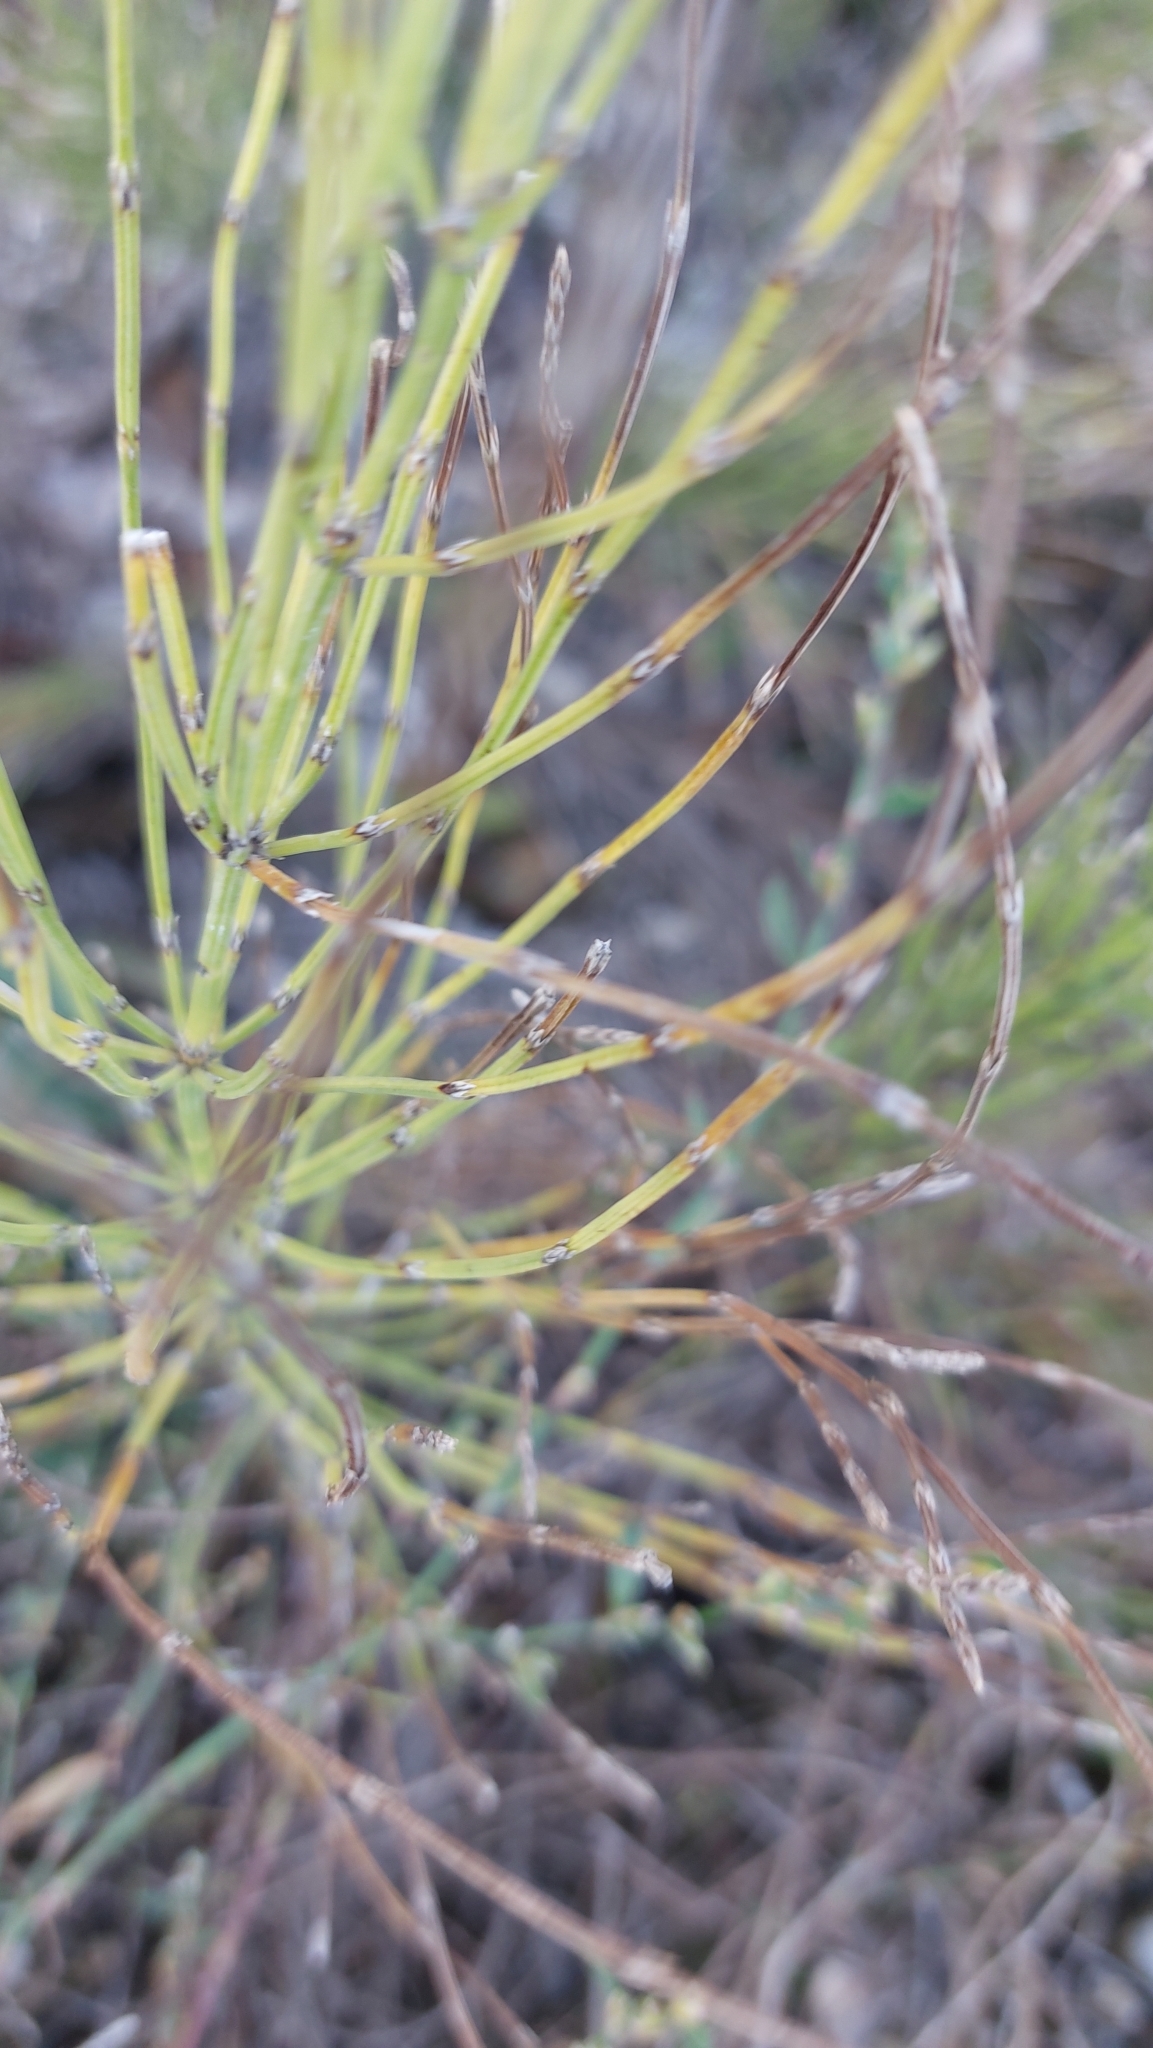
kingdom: Plantae
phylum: Tracheophyta
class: Polypodiopsida
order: Equisetales
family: Equisetaceae
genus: Equisetum
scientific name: Equisetum arvense
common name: Field horsetail
